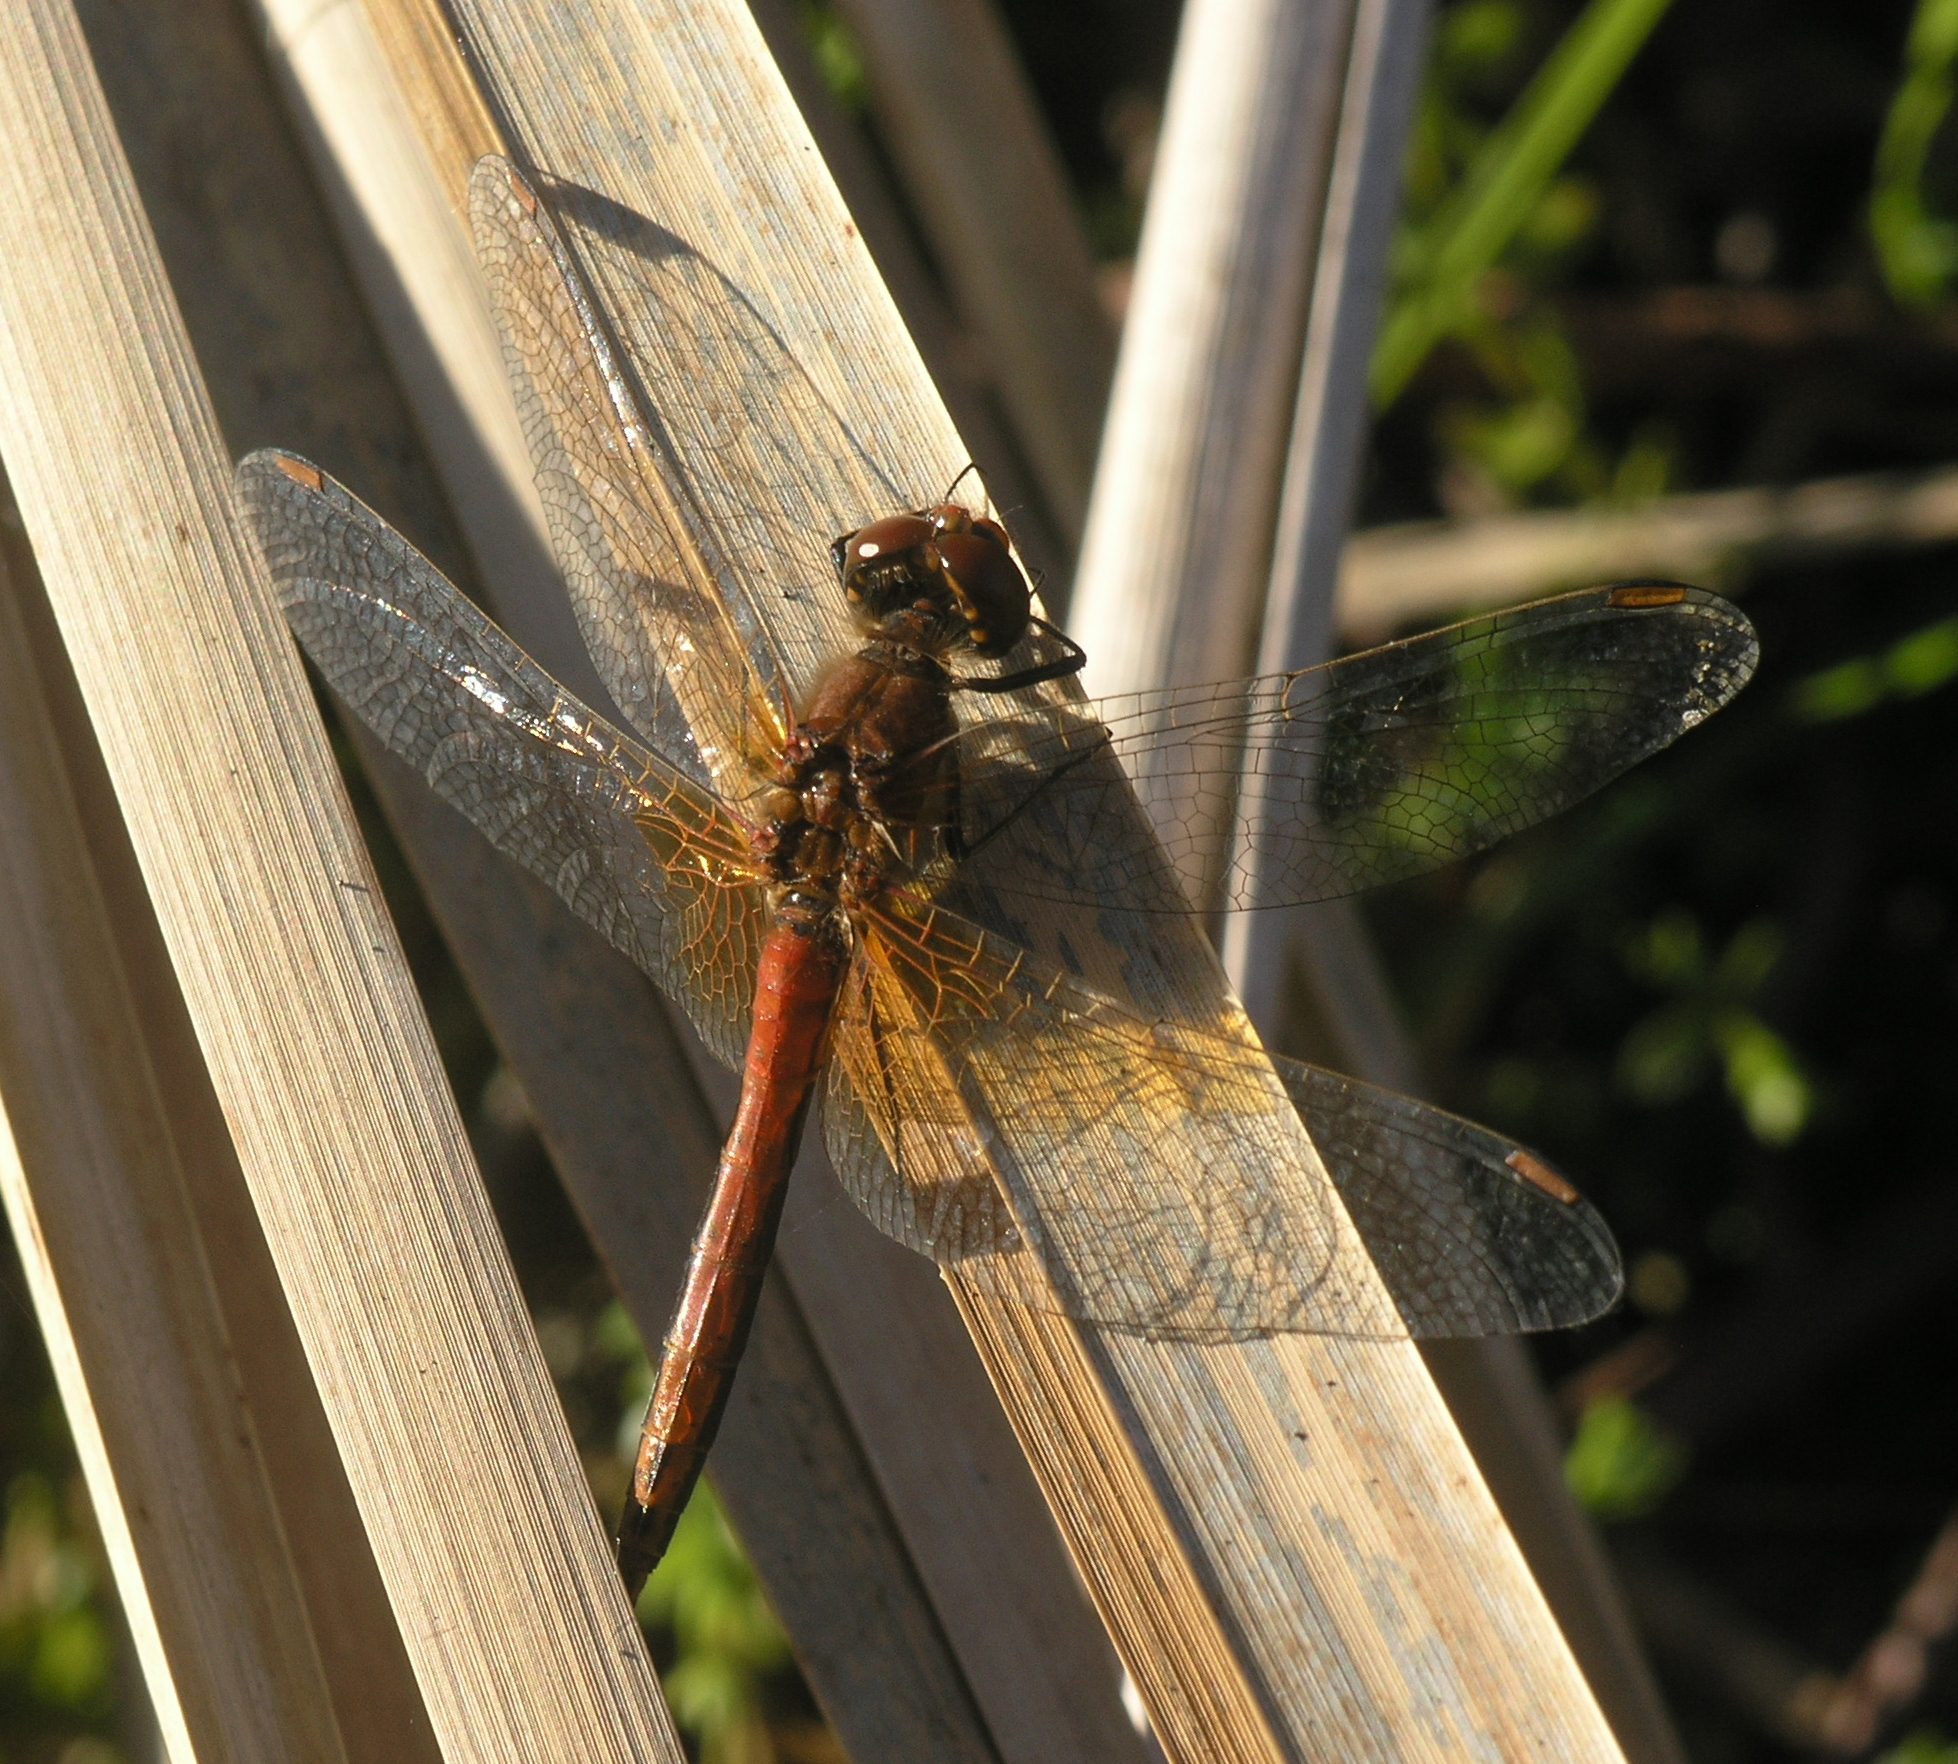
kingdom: Animalia
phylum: Arthropoda
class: Insecta
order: Odonata
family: Libellulidae
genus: Sympetrum
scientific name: Sympetrum flaveolum
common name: Yellow-winged darter
